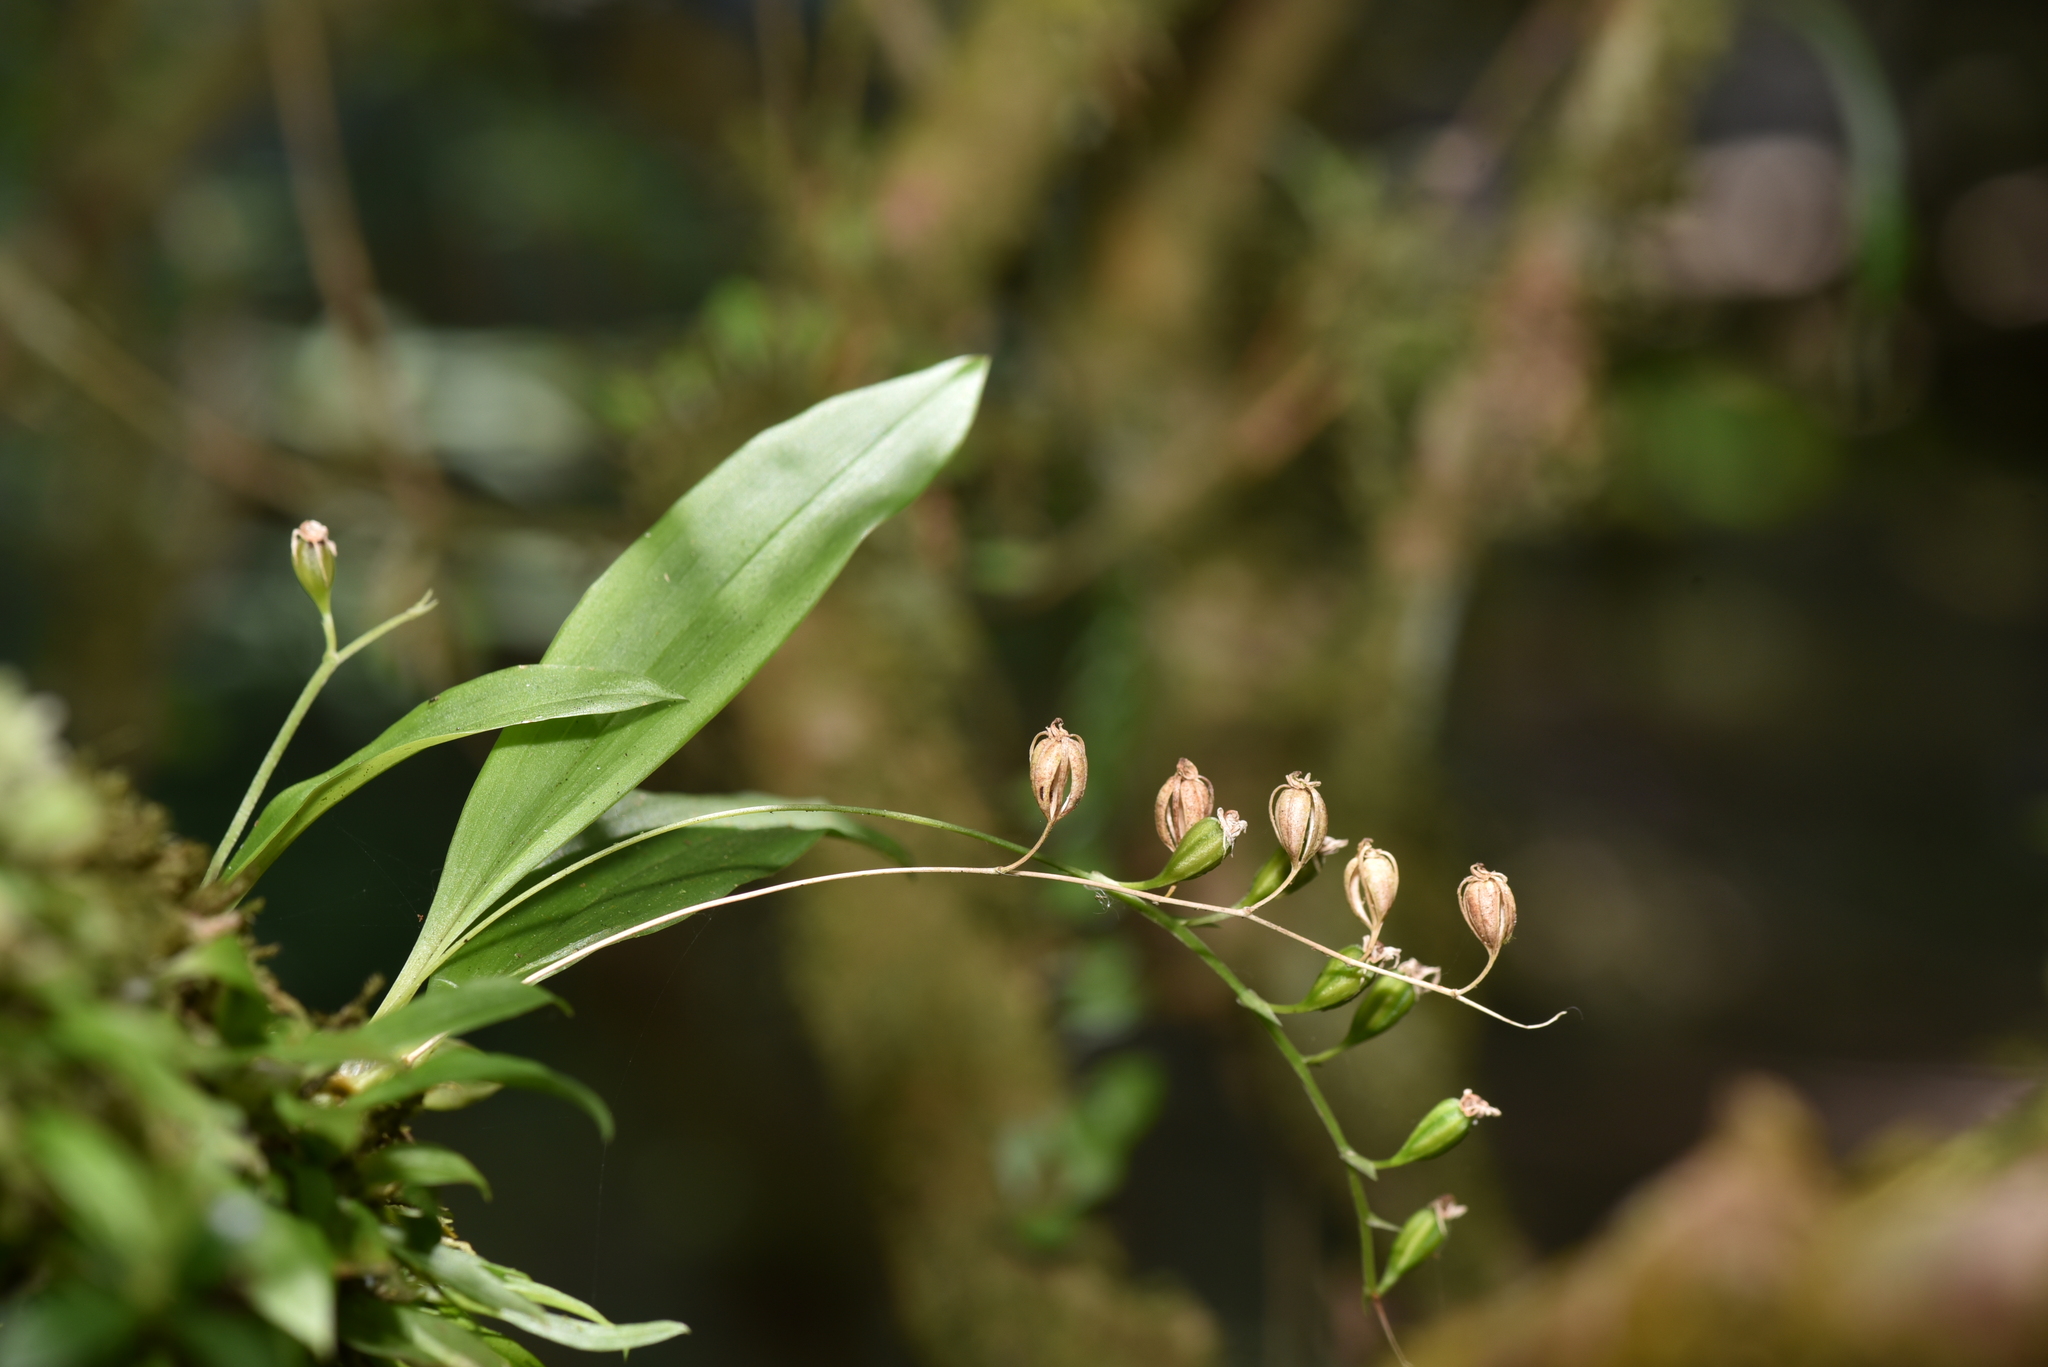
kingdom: Plantae
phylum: Tracheophyta
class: Liliopsida
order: Asparagales
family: Orchidaceae
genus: Liparis
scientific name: Liparis bootanensis
